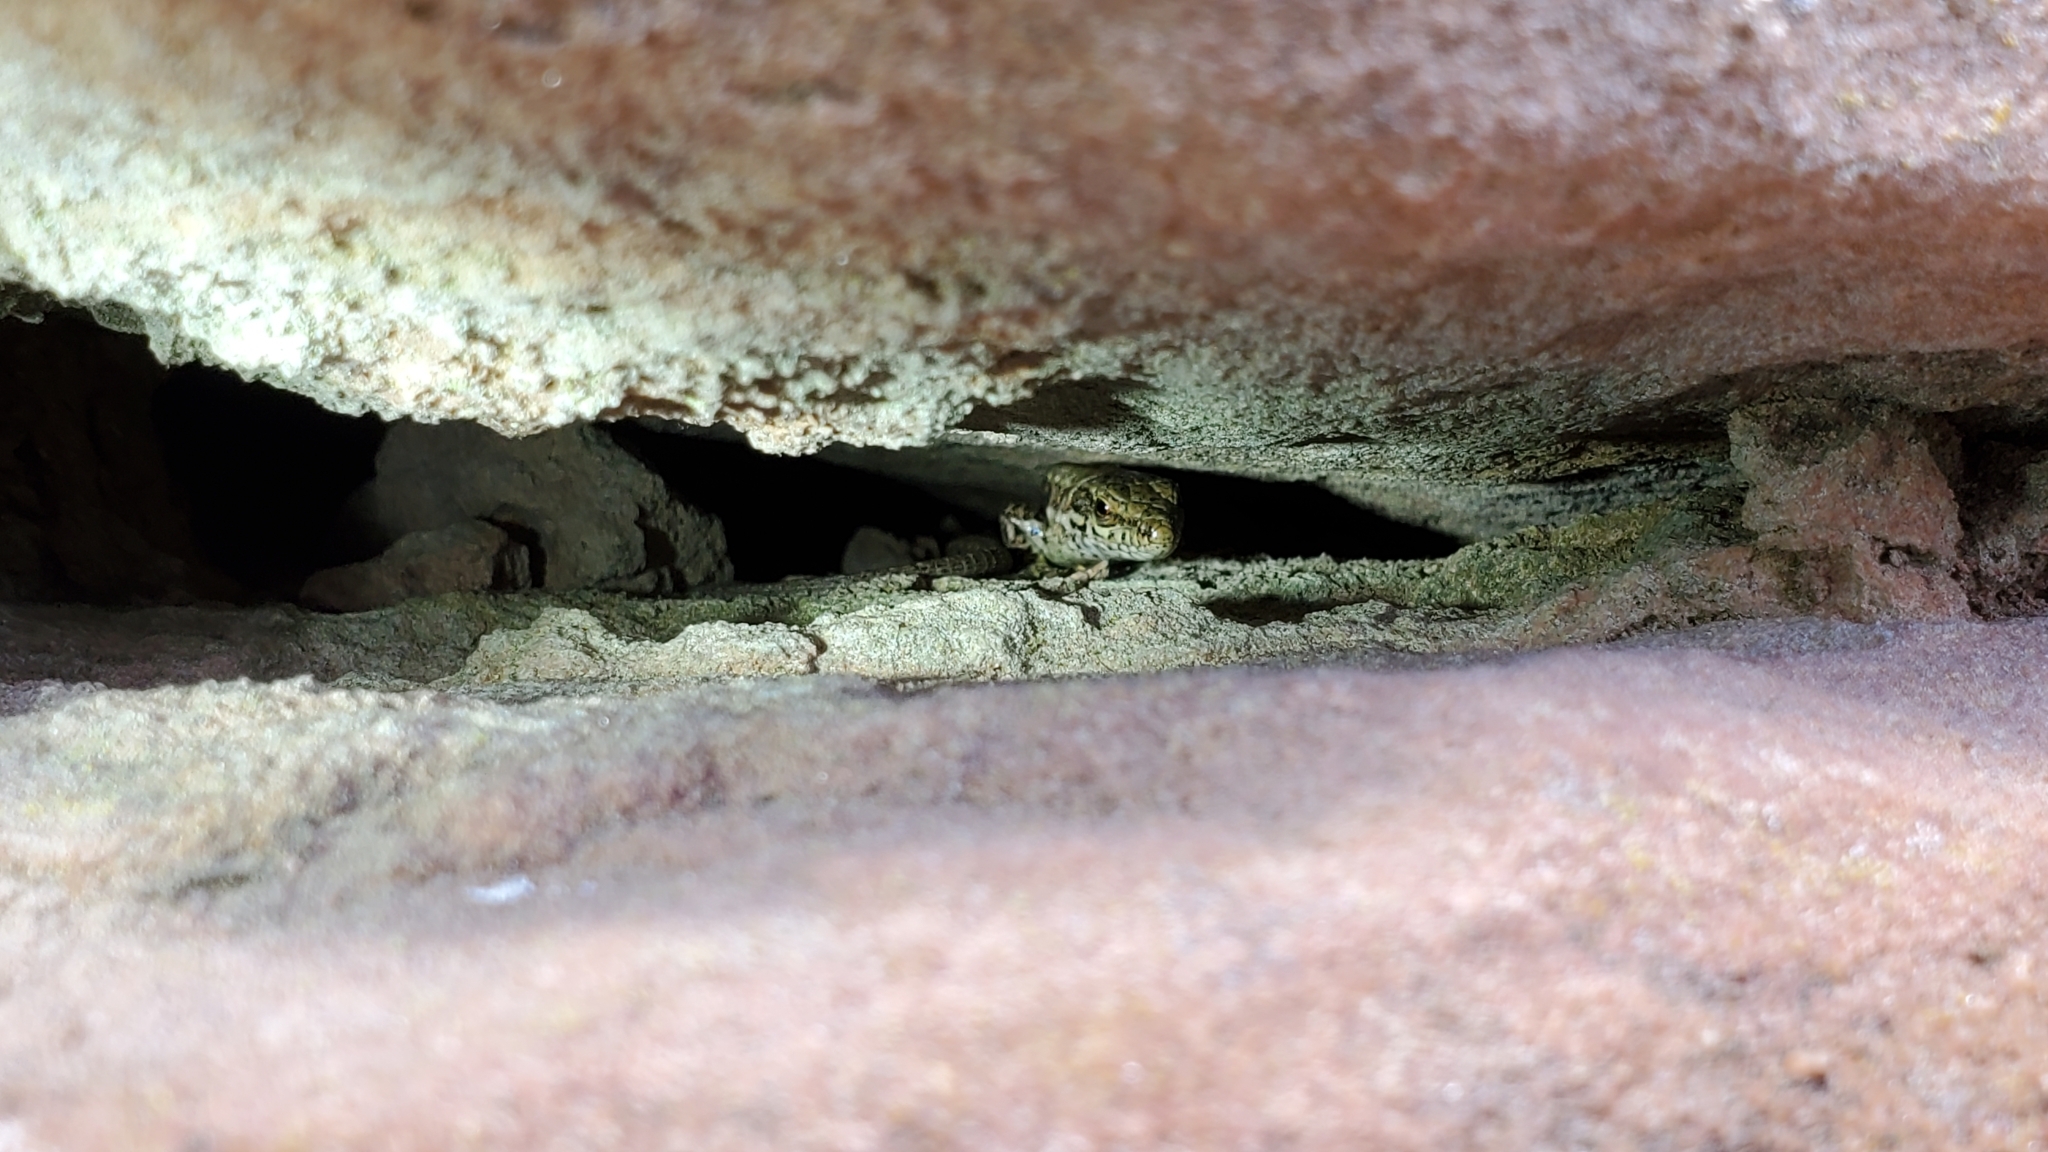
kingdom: Animalia
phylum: Chordata
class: Squamata
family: Lacertidae
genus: Podarcis
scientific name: Podarcis muralis
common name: Common wall lizard
